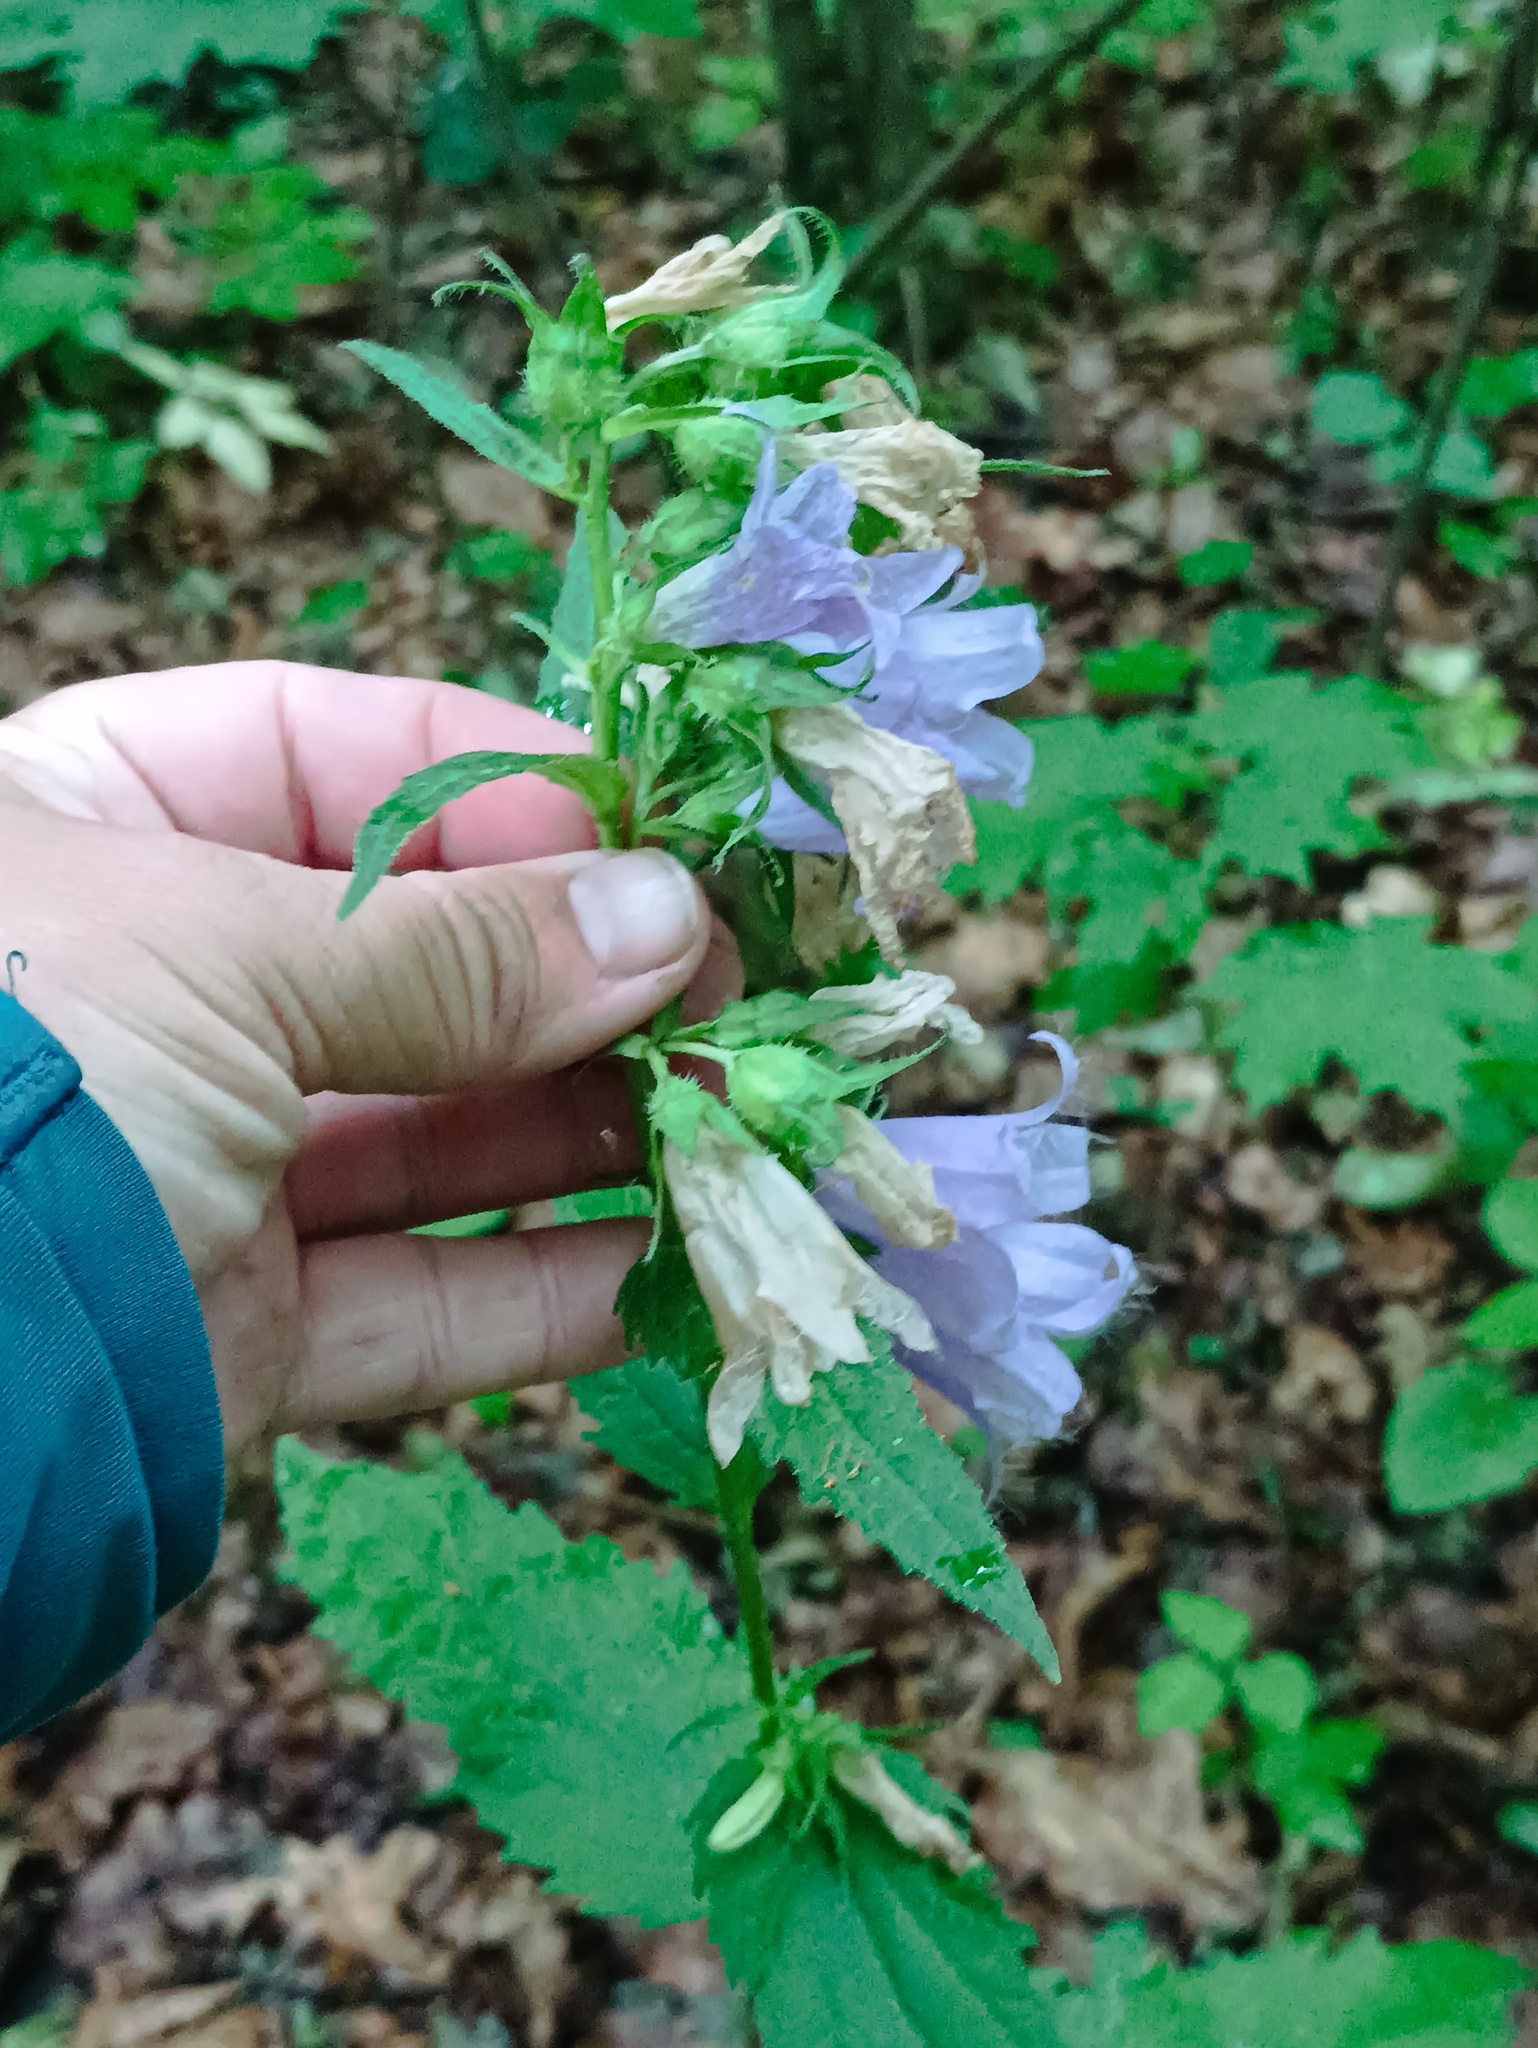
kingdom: Plantae
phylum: Tracheophyta
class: Magnoliopsida
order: Asterales
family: Campanulaceae
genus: Campanula
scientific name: Campanula trachelium
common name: Nettle-leaved bellflower
